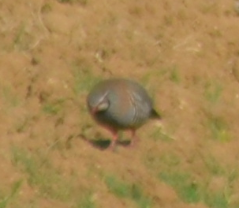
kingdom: Animalia
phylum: Chordata
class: Aves
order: Galliformes
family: Phasianidae
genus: Alectoris
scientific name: Alectoris rufa
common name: Red-legged partridge
